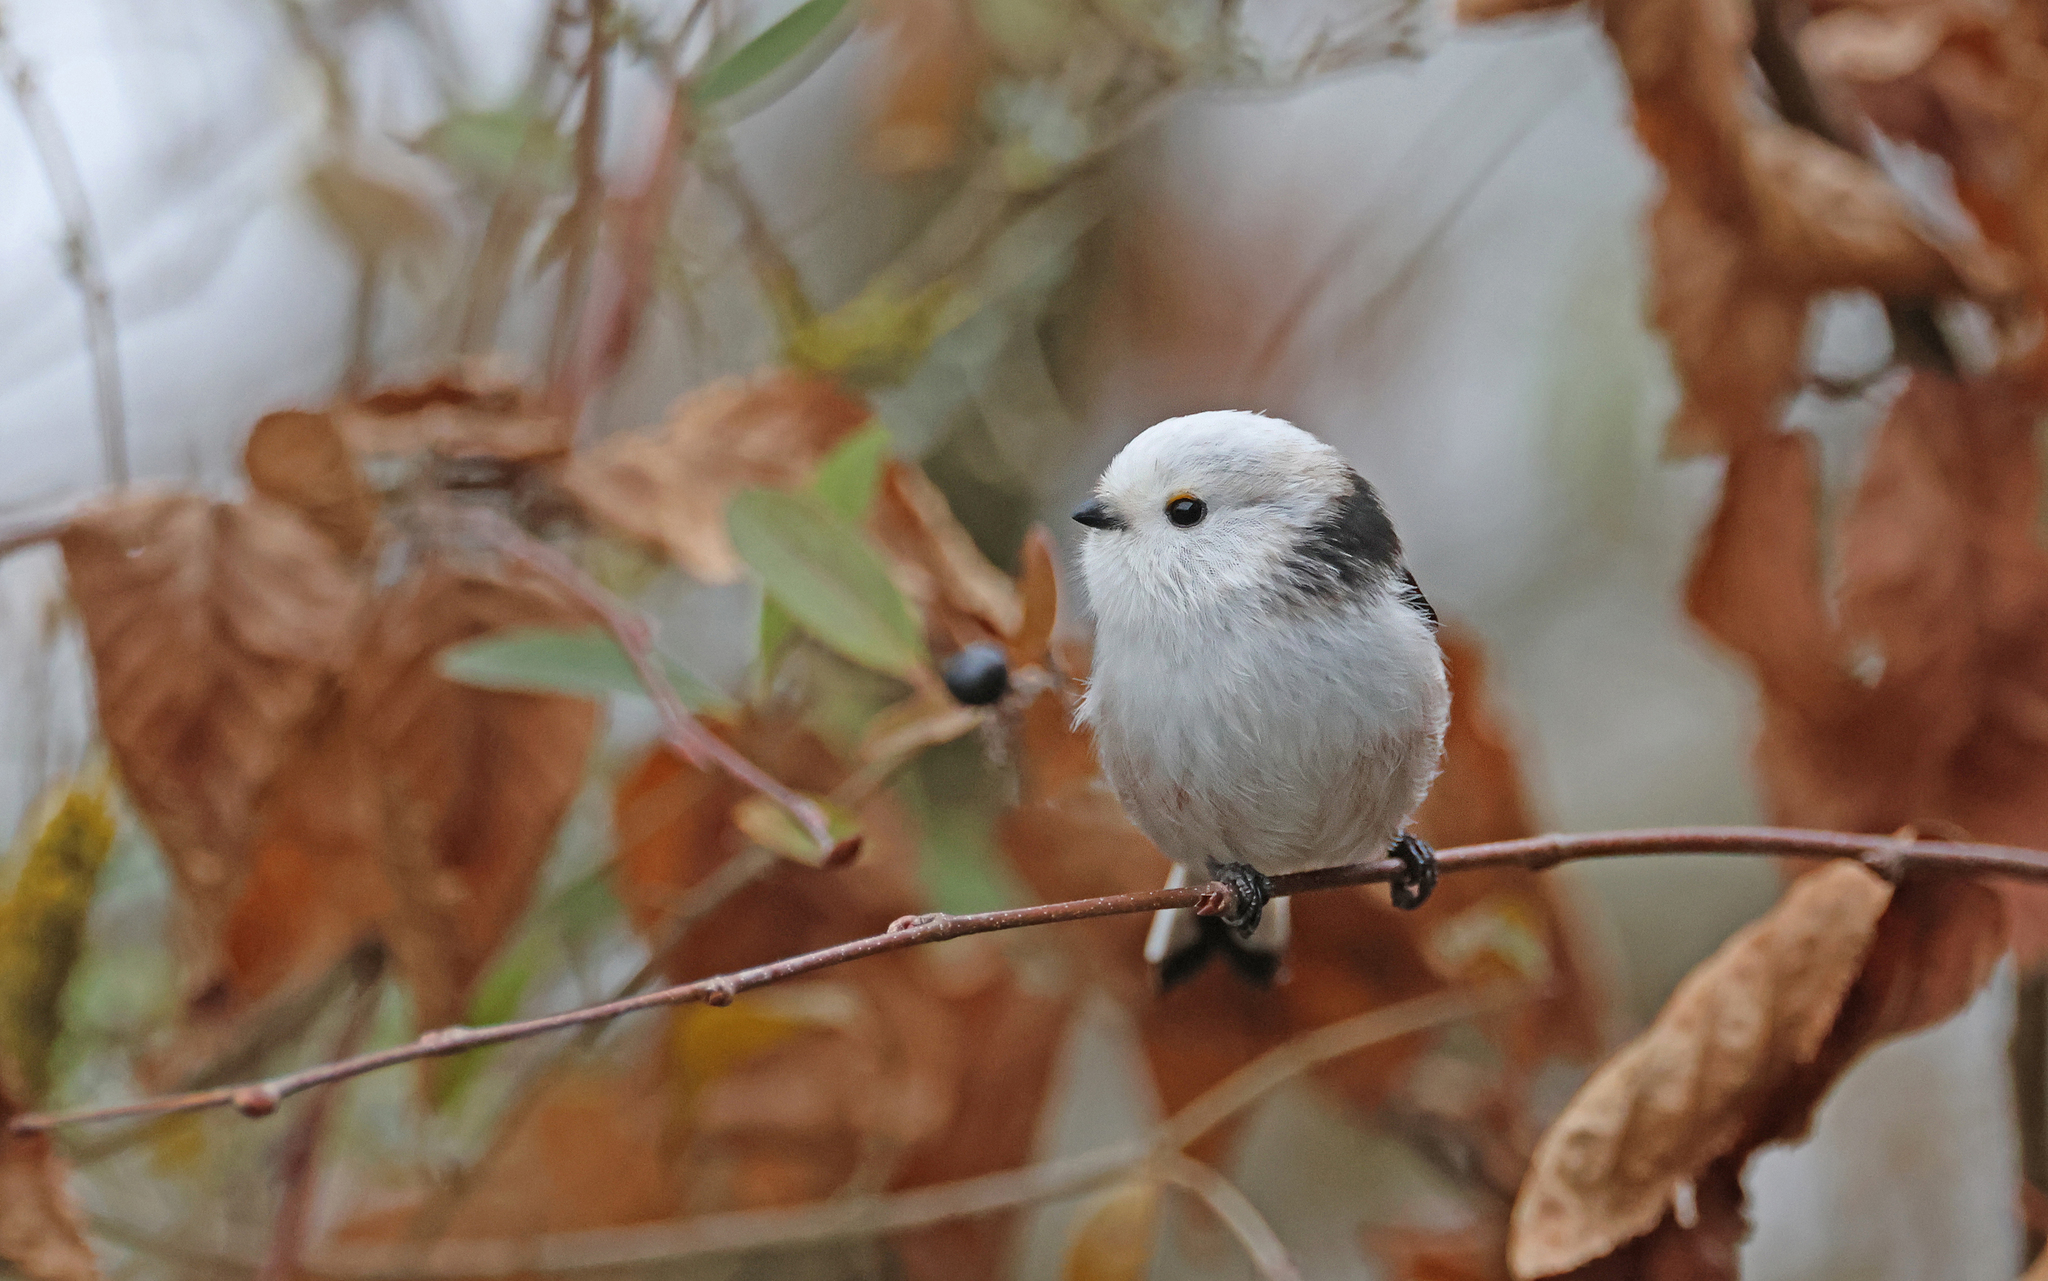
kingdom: Animalia
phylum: Chordata
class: Aves
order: Passeriformes
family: Aegithalidae
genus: Aegithalos
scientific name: Aegithalos caudatus
